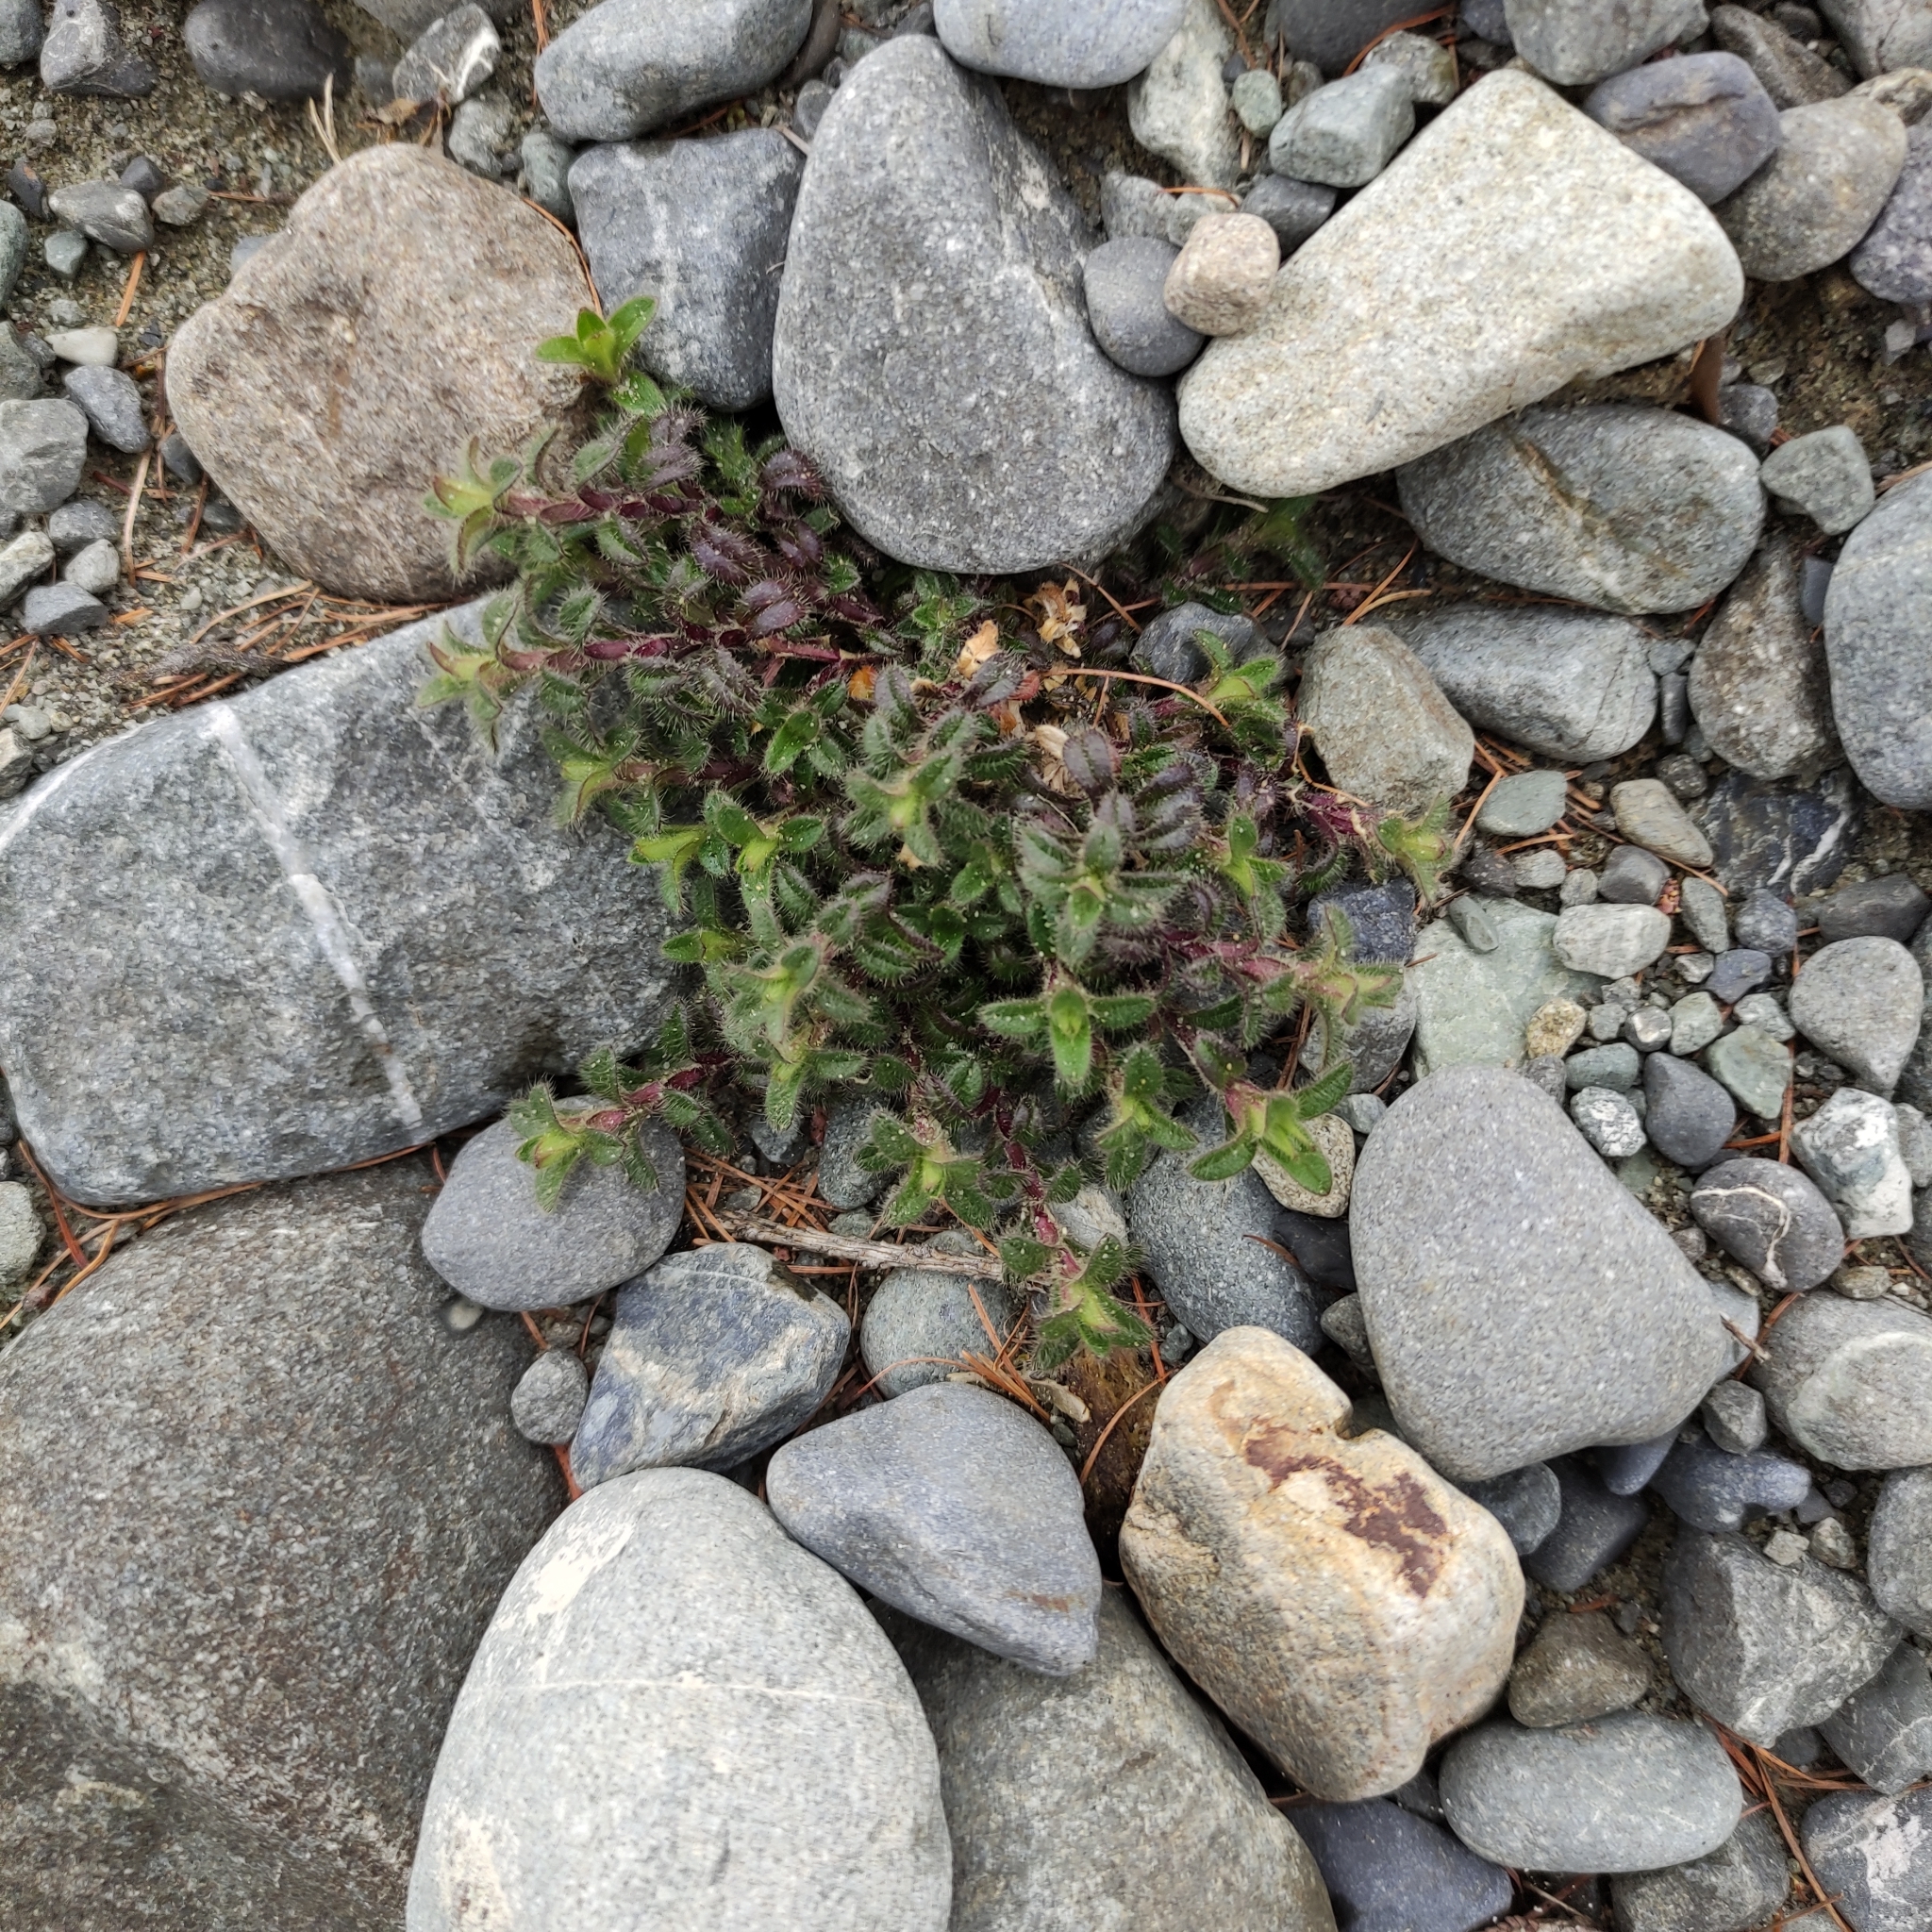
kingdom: Plantae
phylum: Tracheophyta
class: Magnoliopsida
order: Caryophyllales
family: Caryophyllaceae
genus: Cerastium
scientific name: Cerastium fontanum
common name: Common mouse-ear
